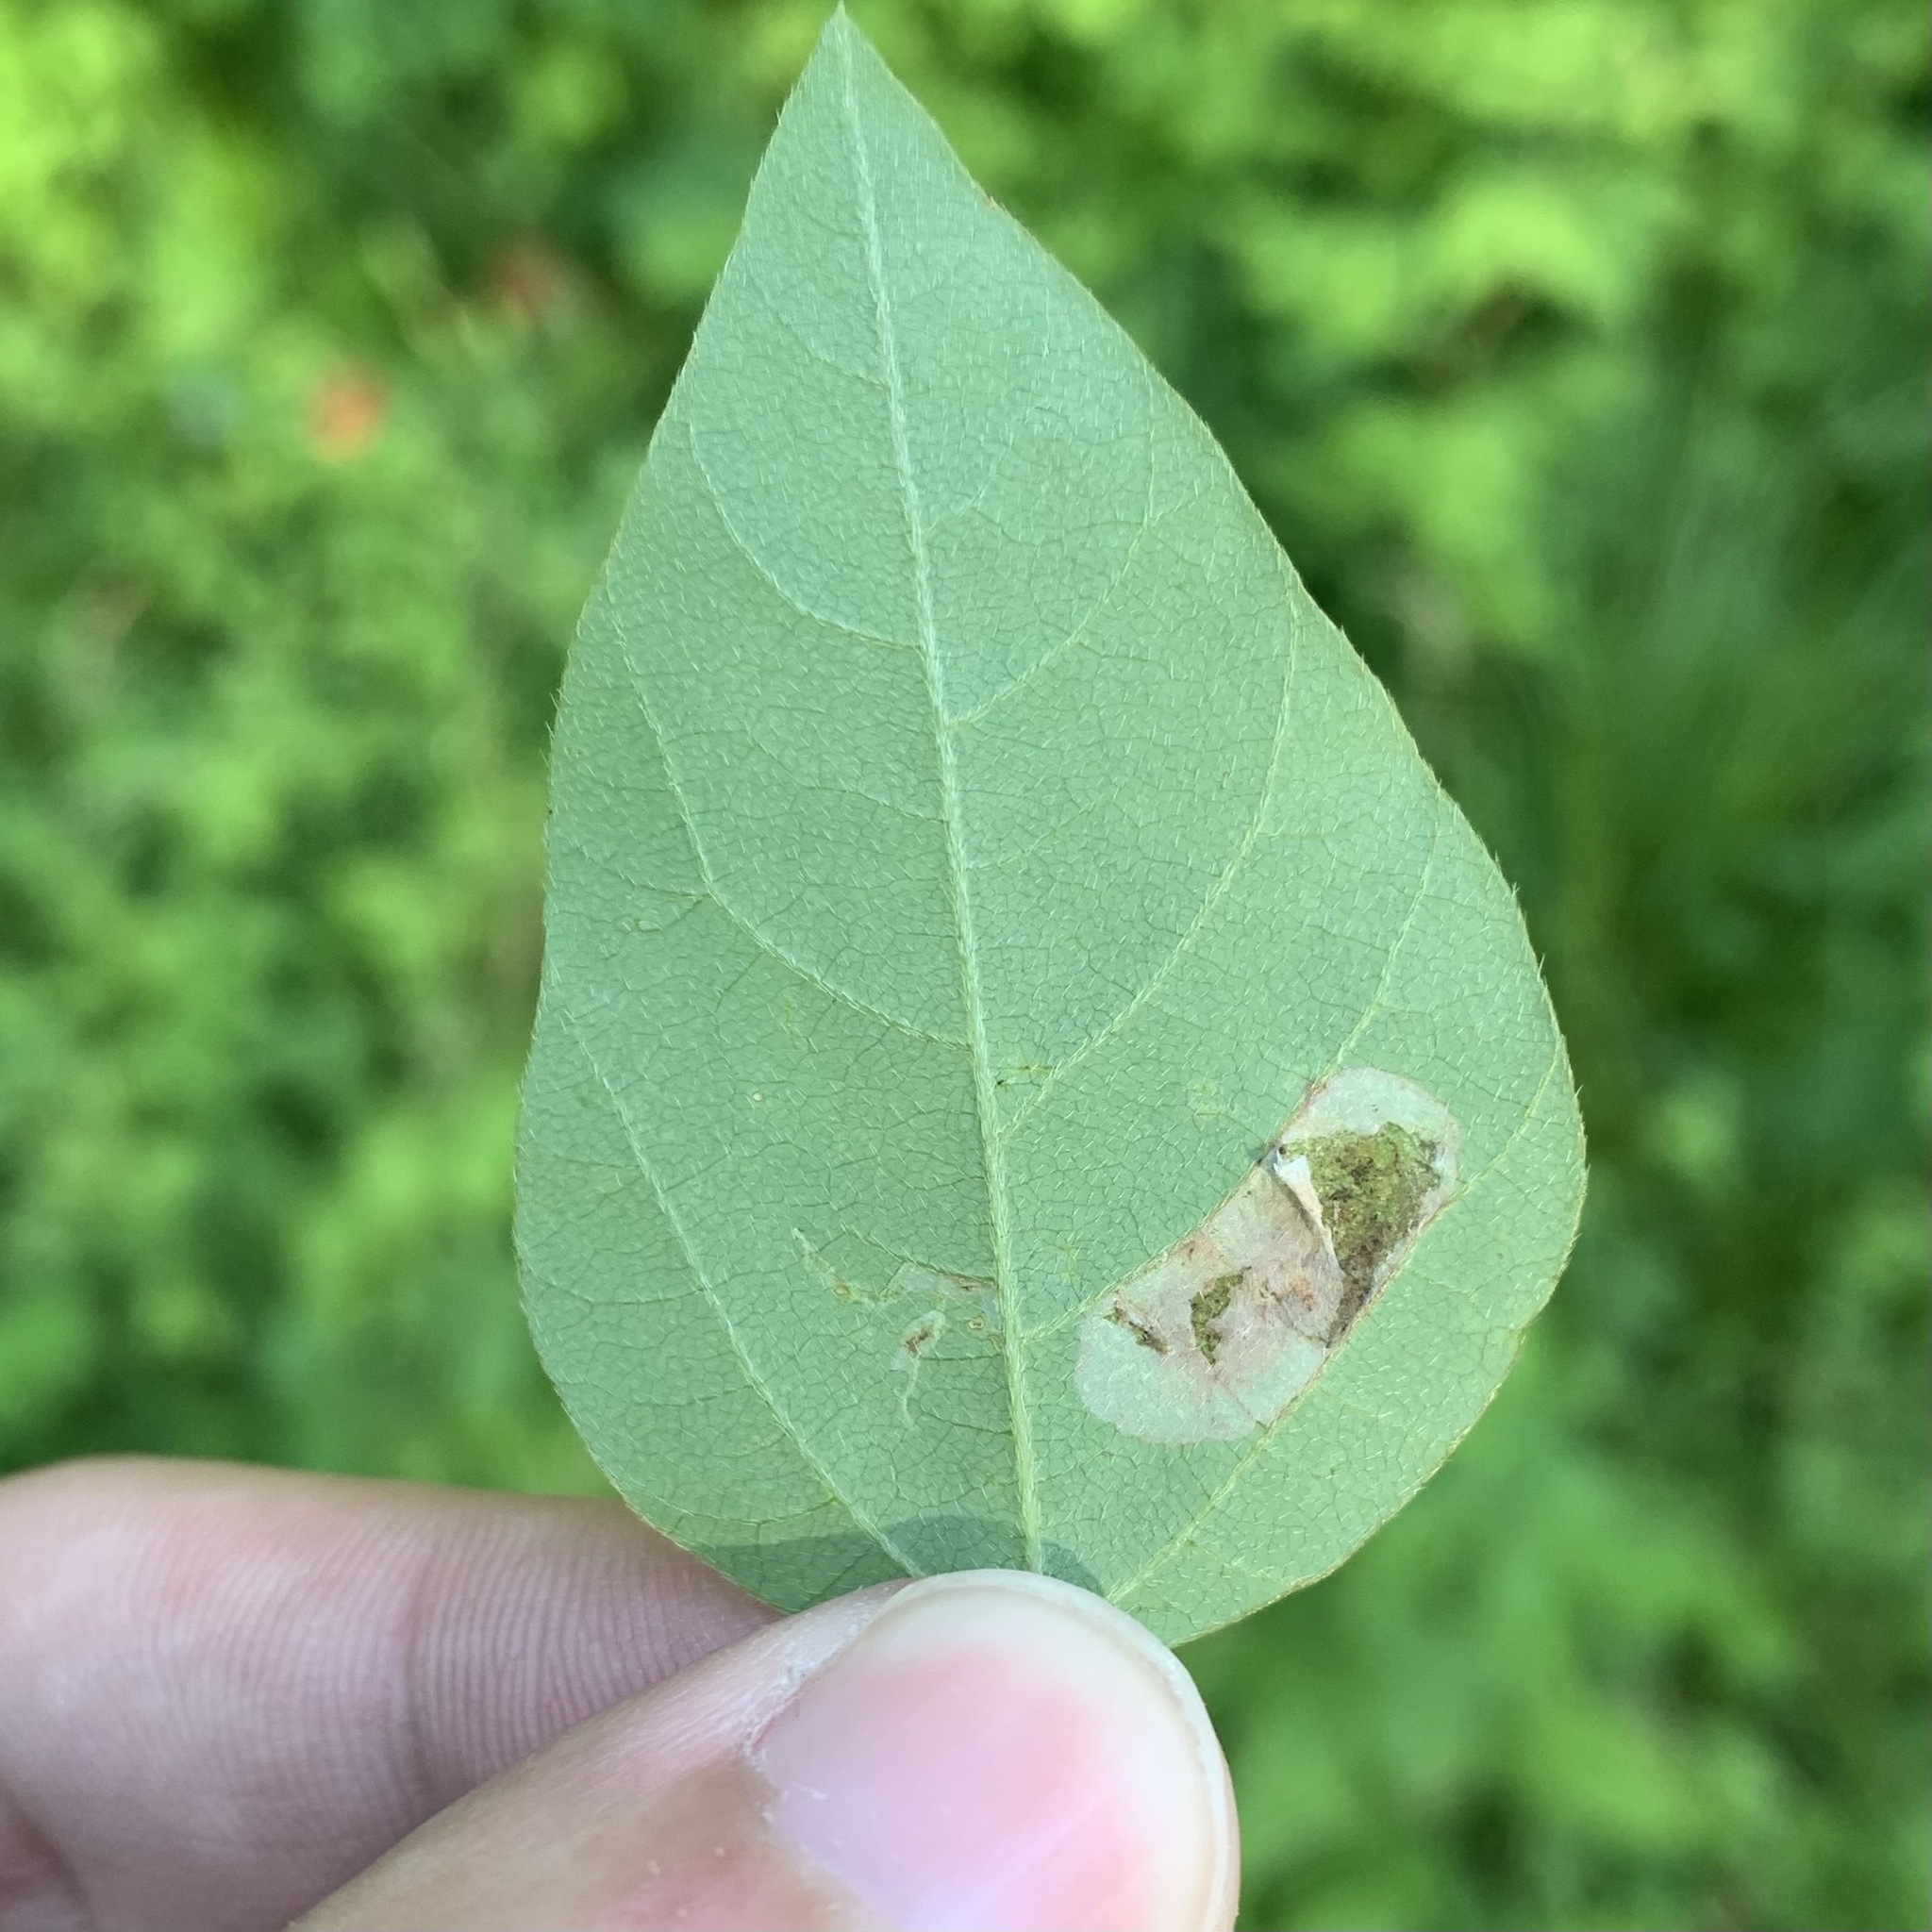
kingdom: Animalia
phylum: Arthropoda
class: Insecta
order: Lepidoptera
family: Gracillariidae
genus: Macrosaccus
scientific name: Macrosaccus morrisella
